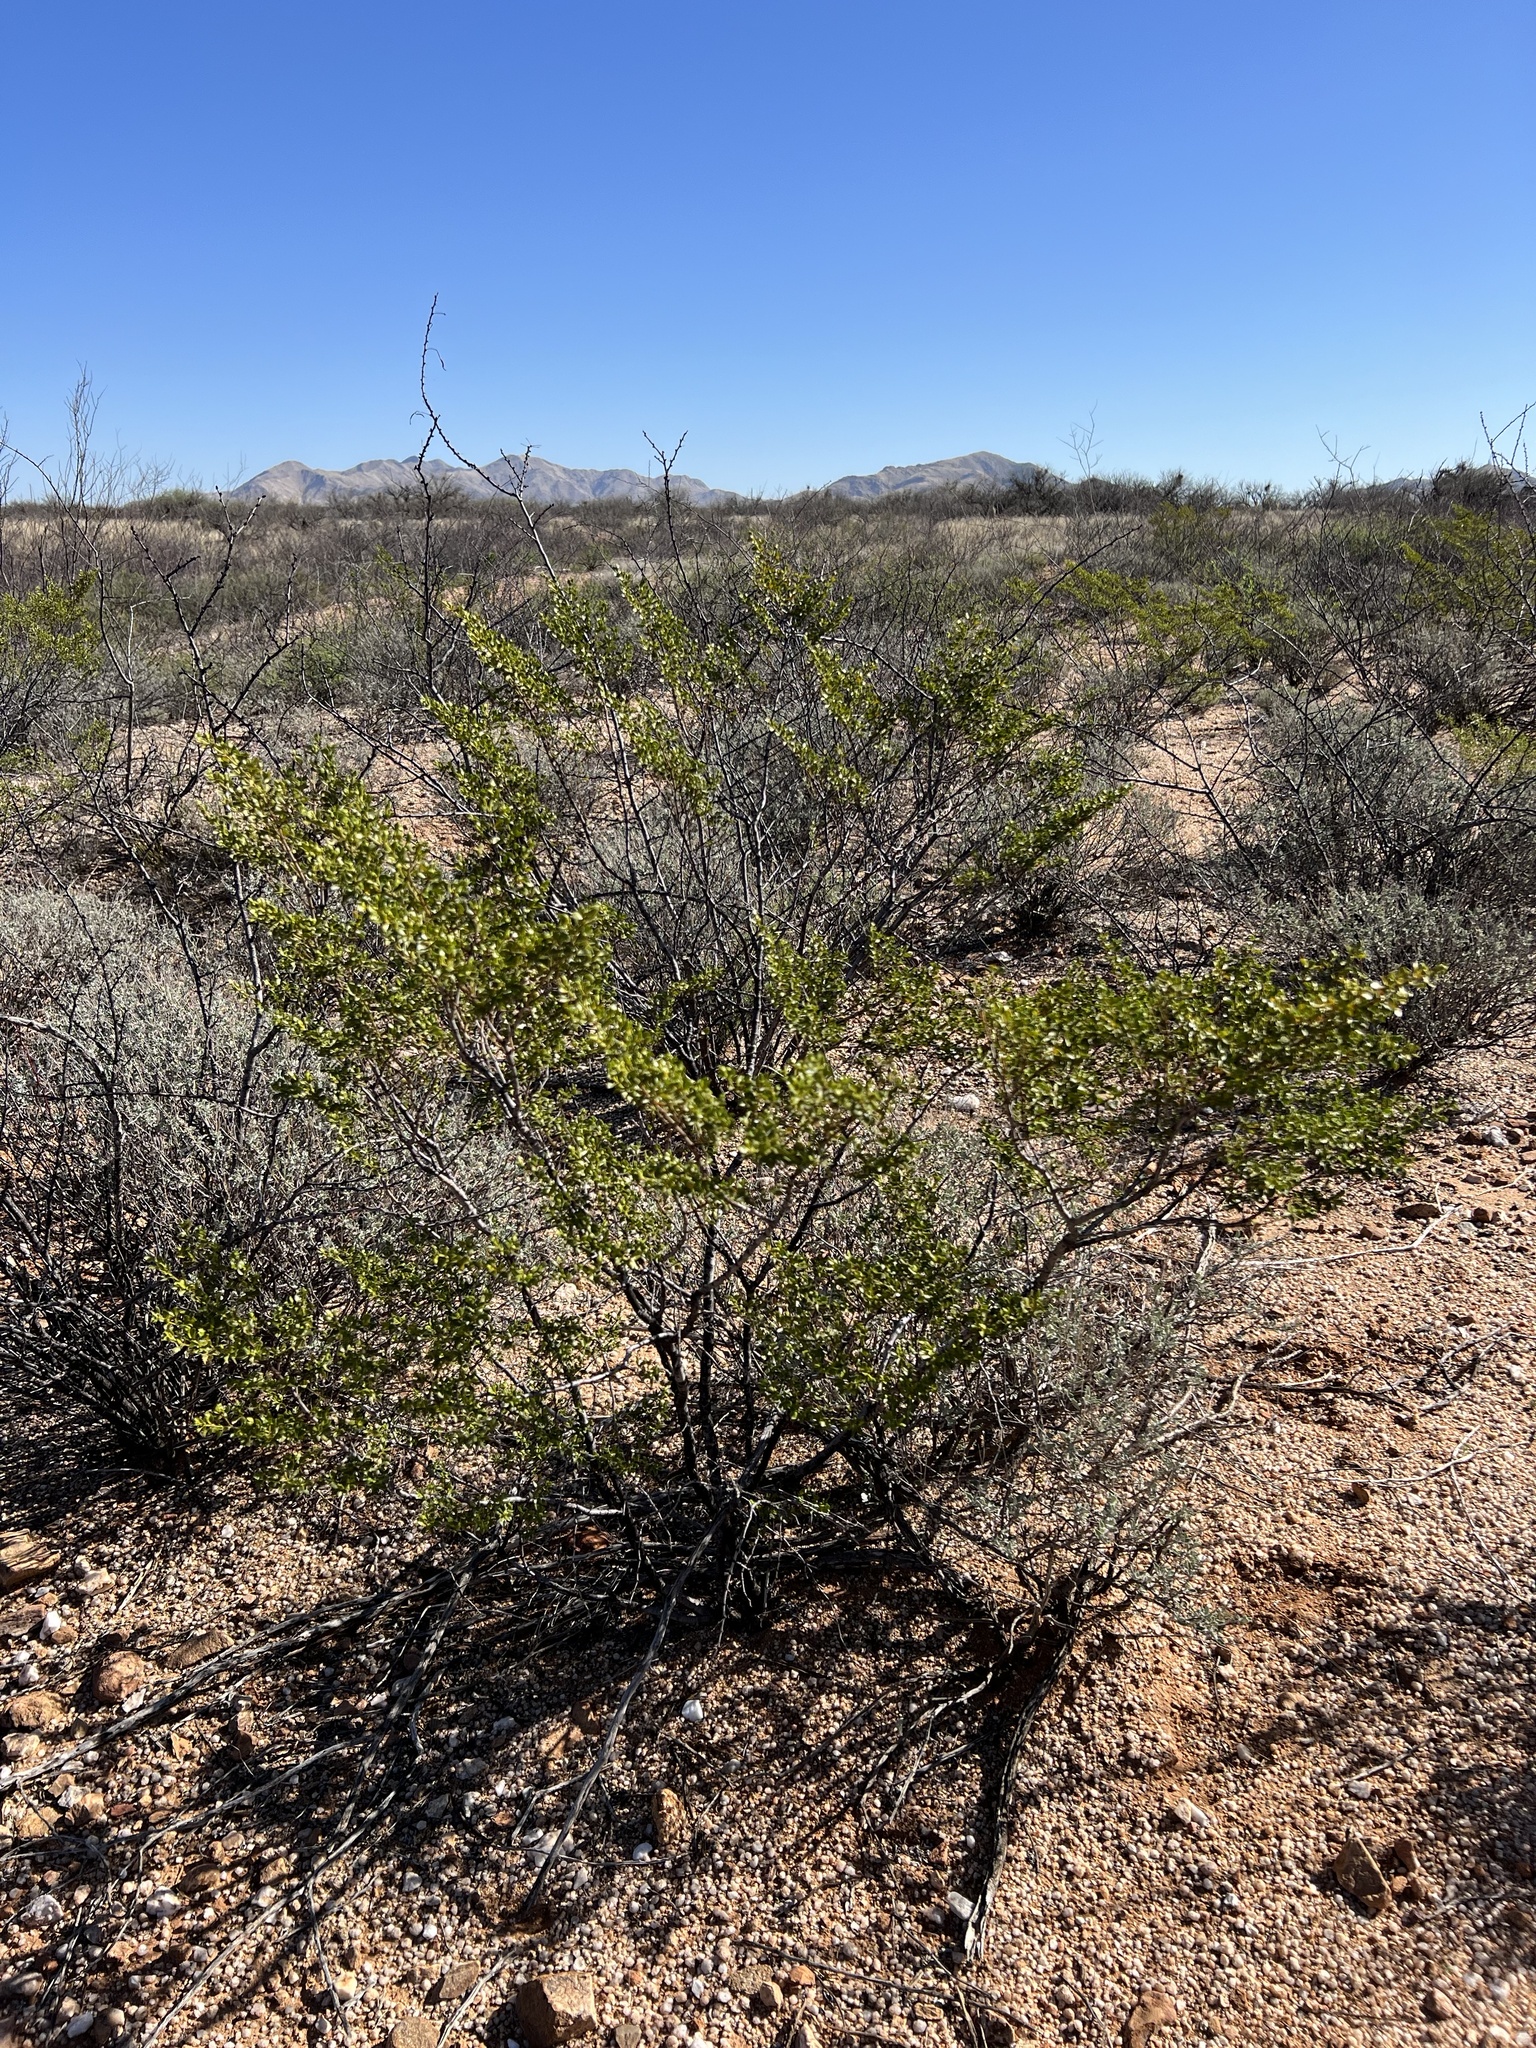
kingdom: Plantae
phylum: Tracheophyta
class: Magnoliopsida
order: Zygophyllales
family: Zygophyllaceae
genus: Larrea
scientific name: Larrea tridentata
